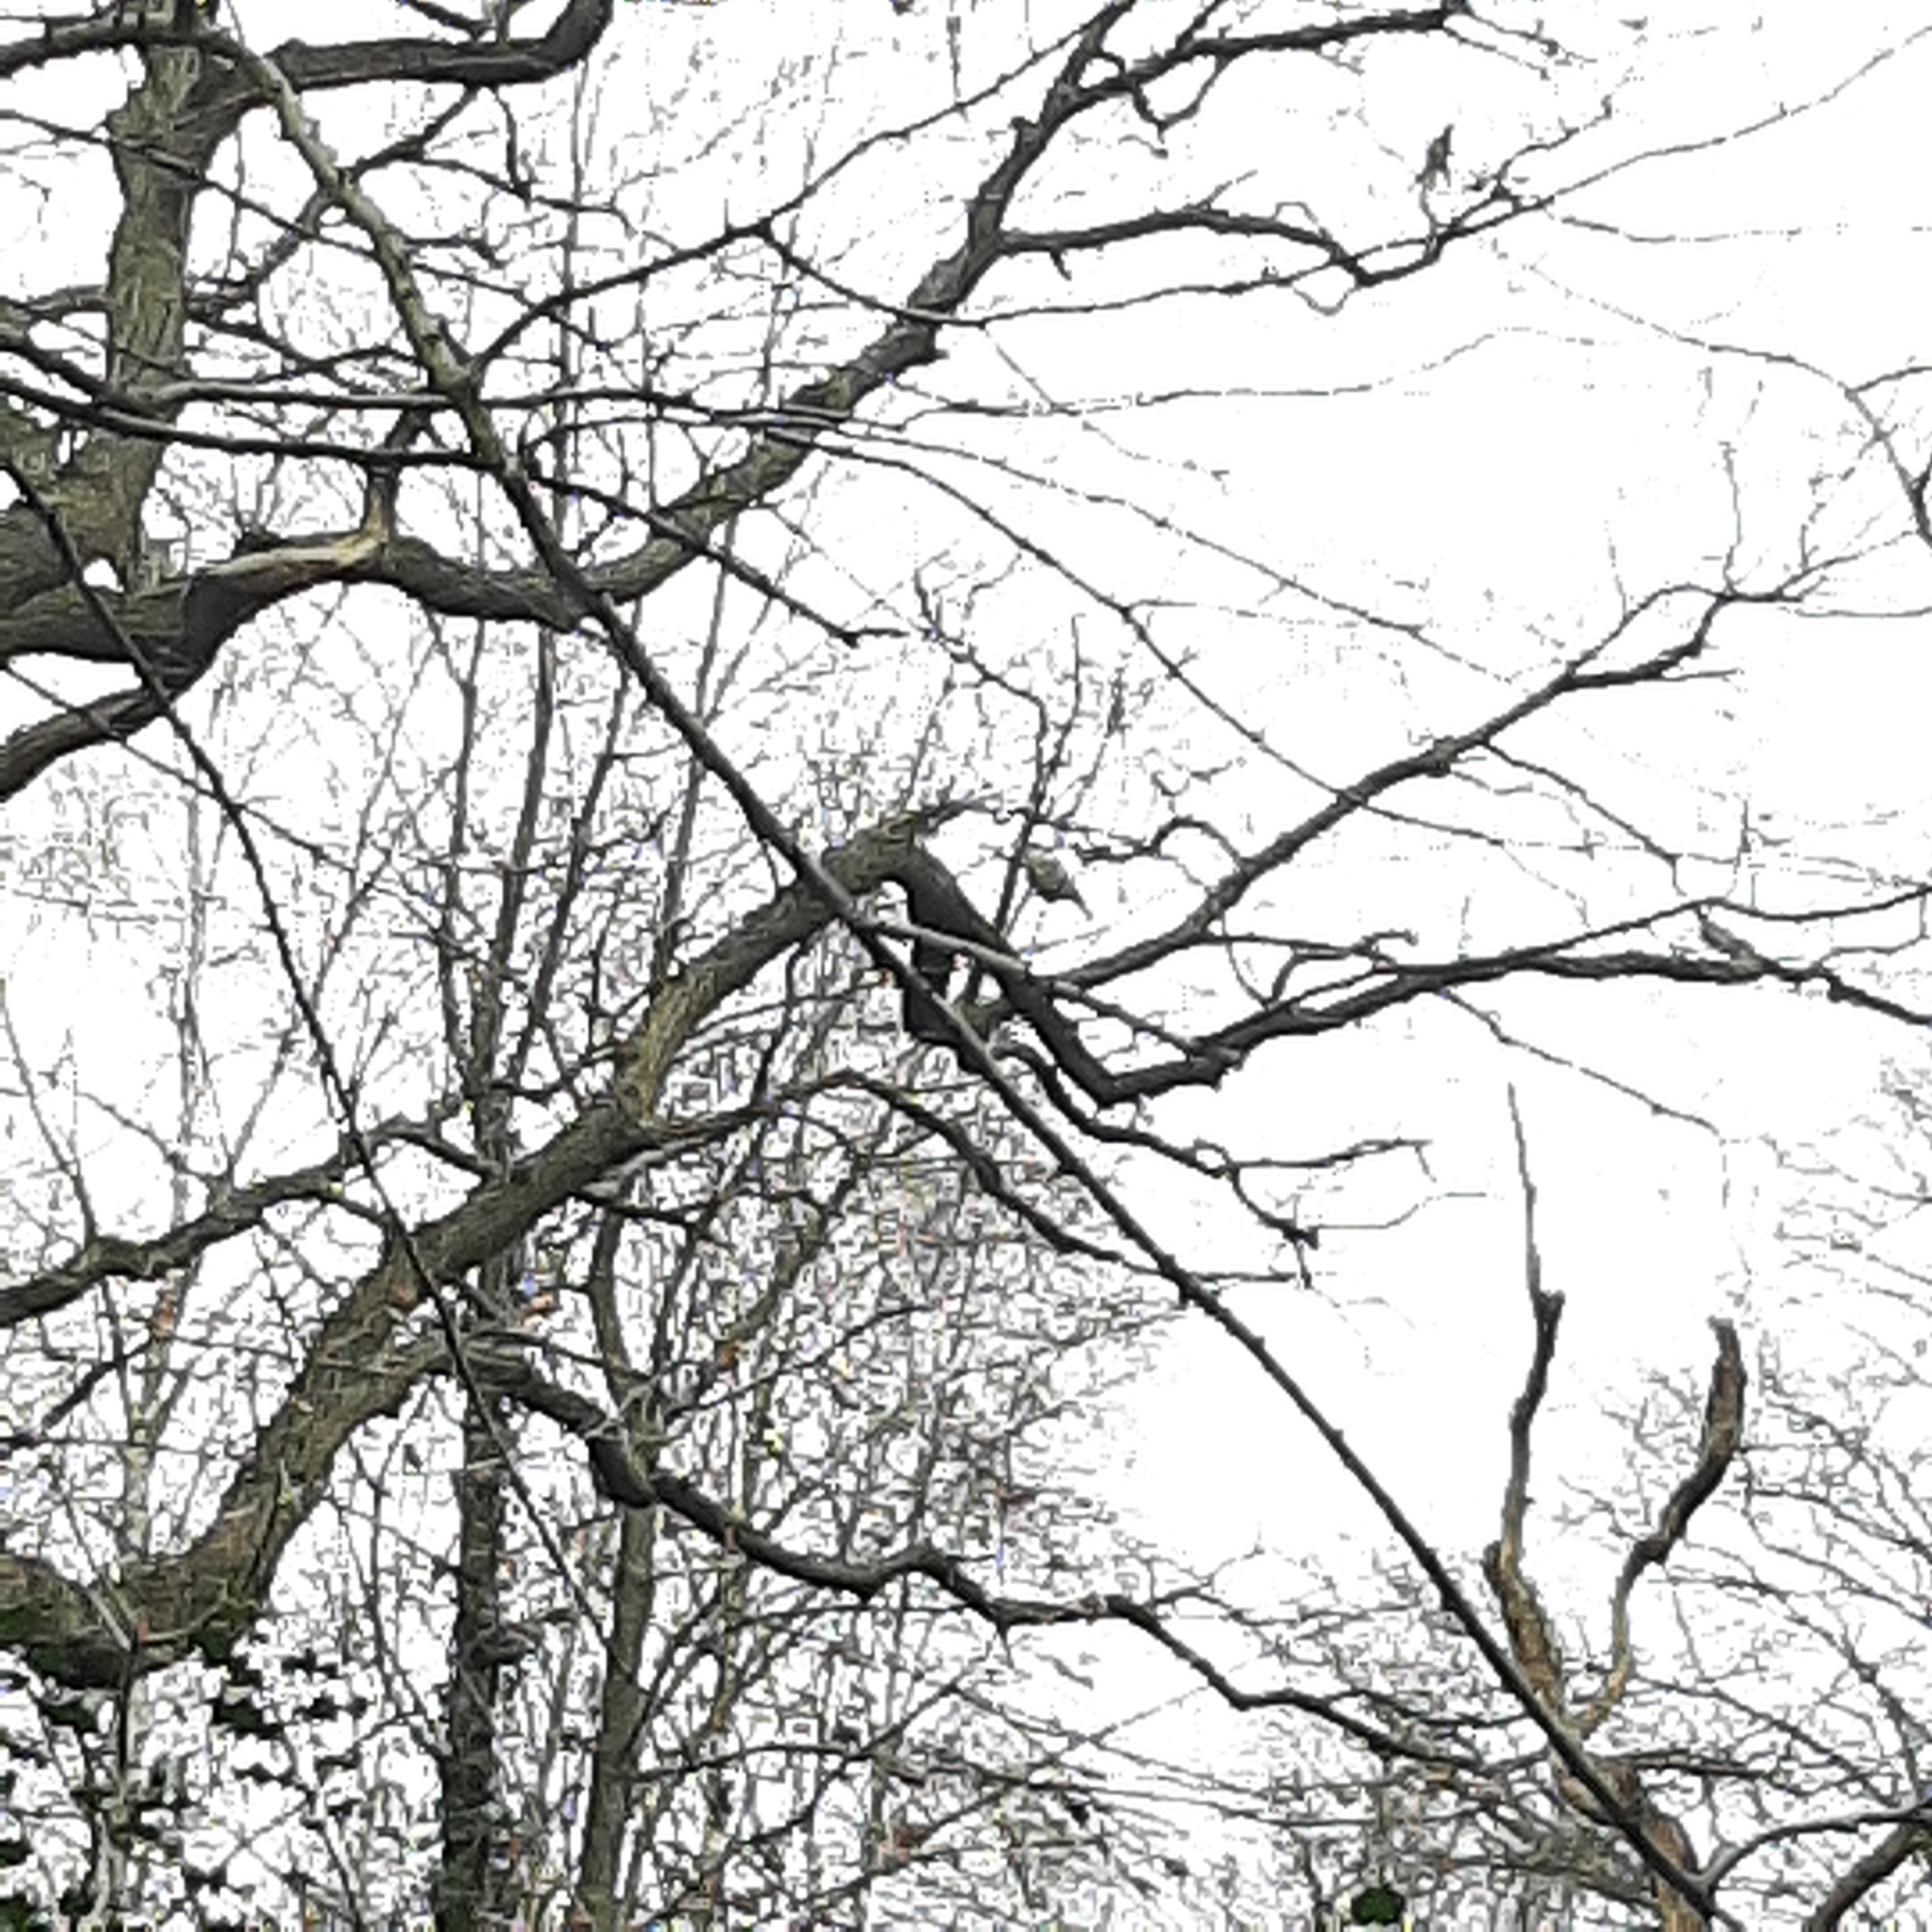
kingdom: Animalia
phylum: Chordata
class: Aves
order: Passeriformes
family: Paridae
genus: Cyanistes
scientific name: Cyanistes caeruleus
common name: Eurasian blue tit
